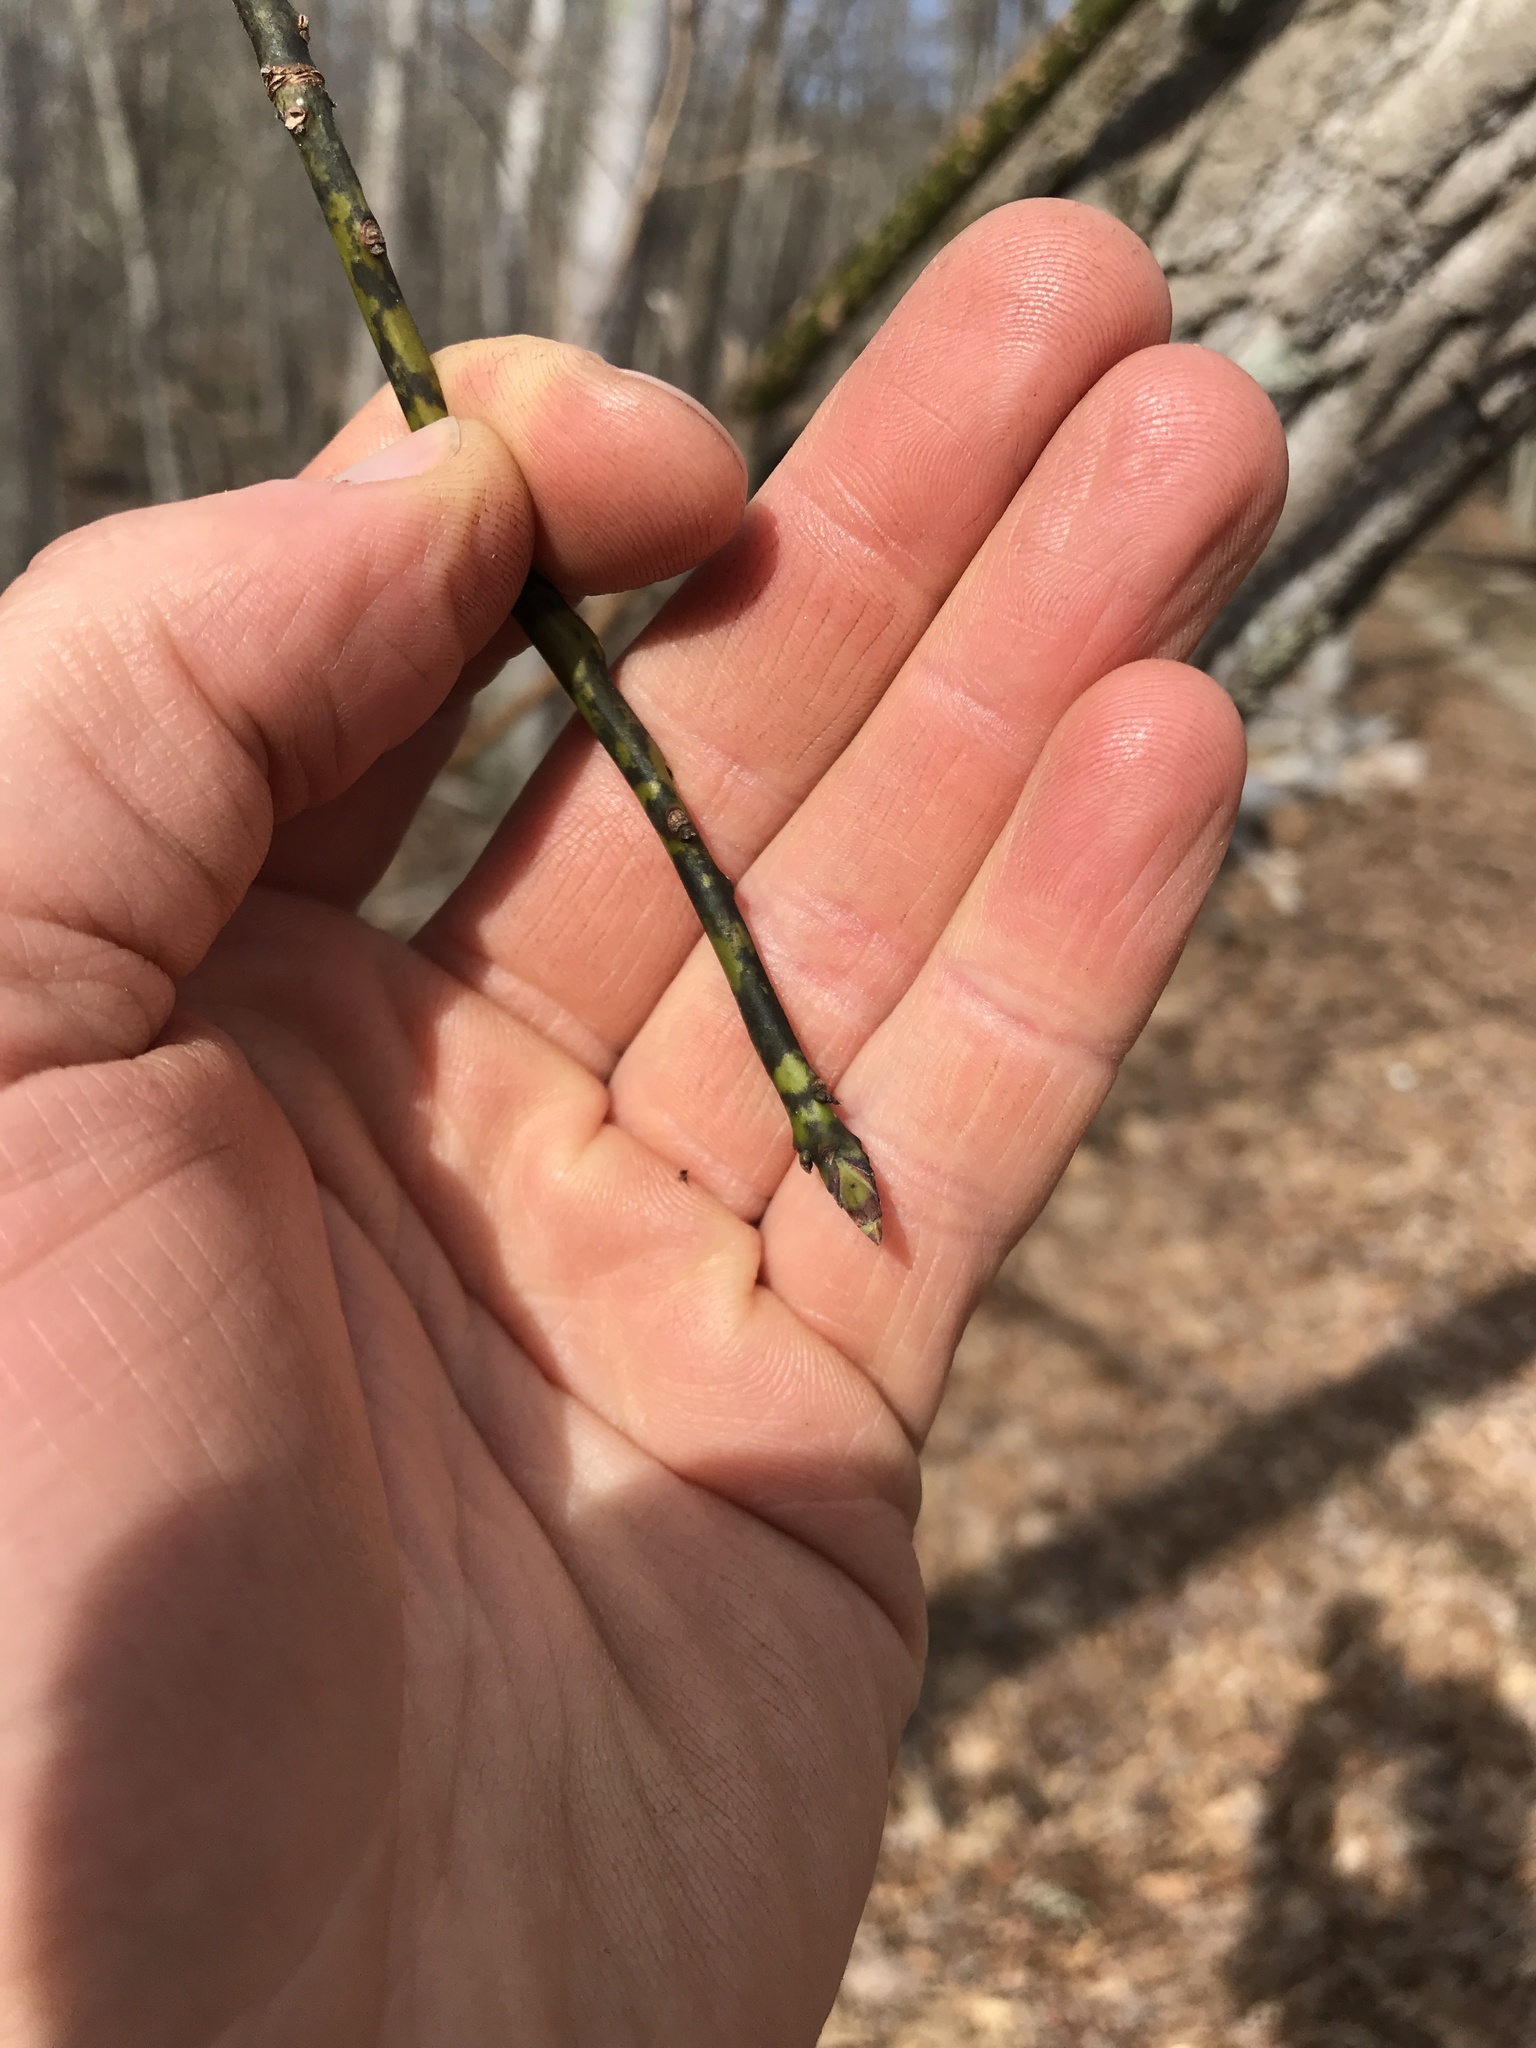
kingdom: Plantae
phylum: Tracheophyta
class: Magnoliopsida
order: Laurales
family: Lauraceae
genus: Sassafras
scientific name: Sassafras albidum
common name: Sassafras
